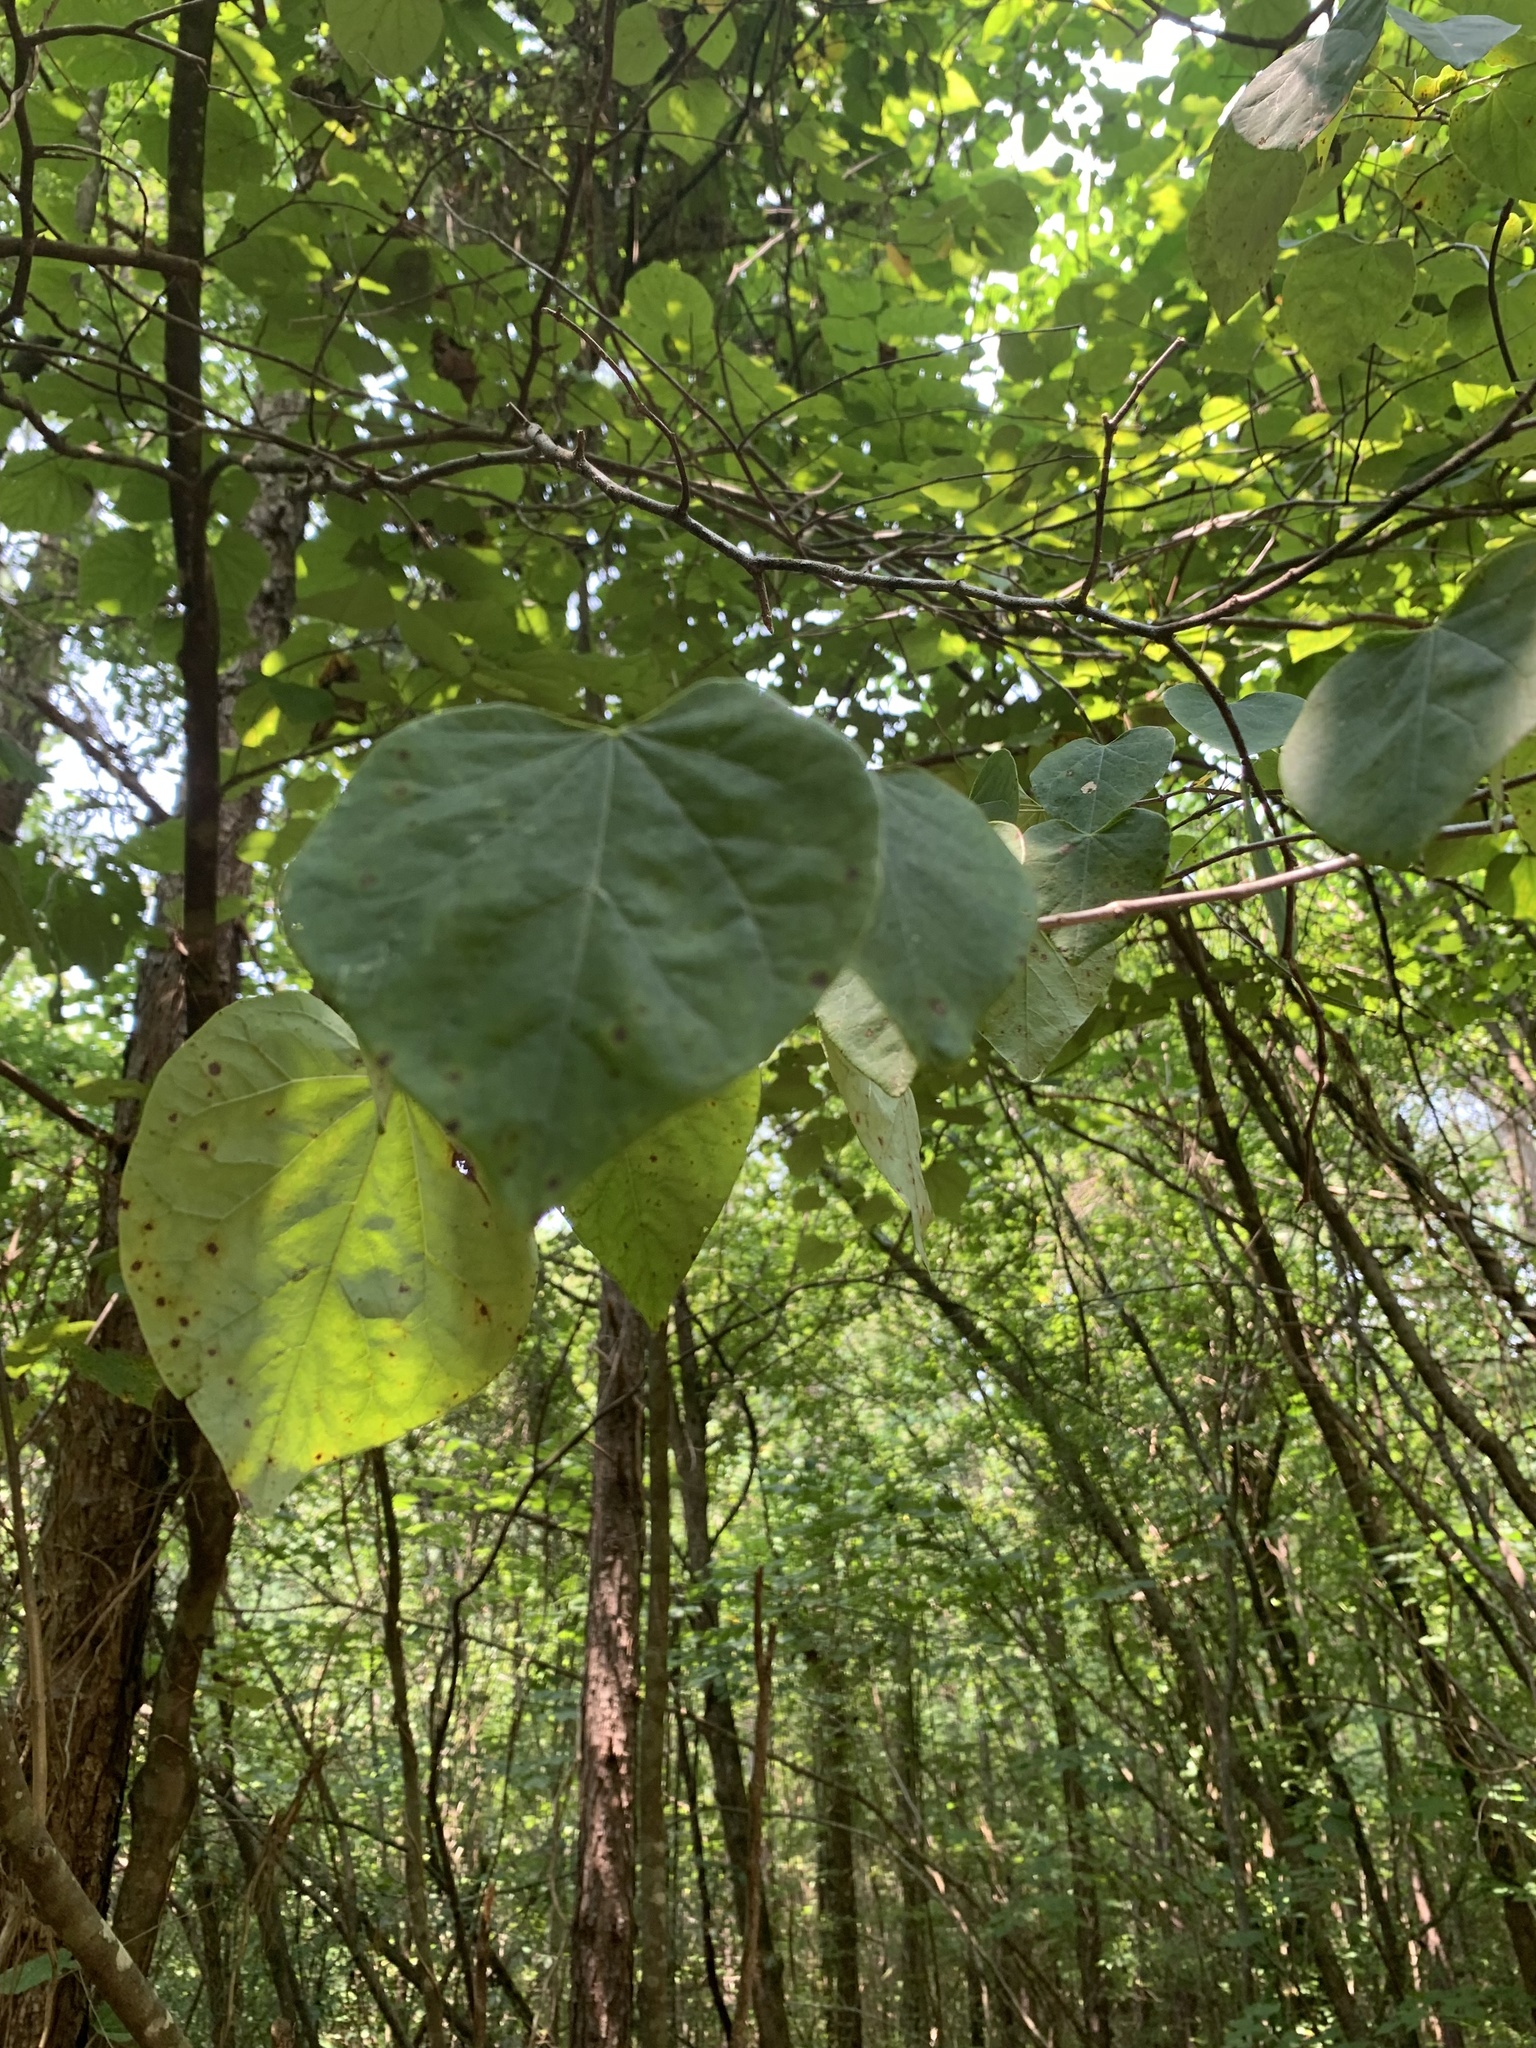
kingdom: Plantae
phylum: Tracheophyta
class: Magnoliopsida
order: Fabales
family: Fabaceae
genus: Cercis
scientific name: Cercis canadensis
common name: Eastern redbud
